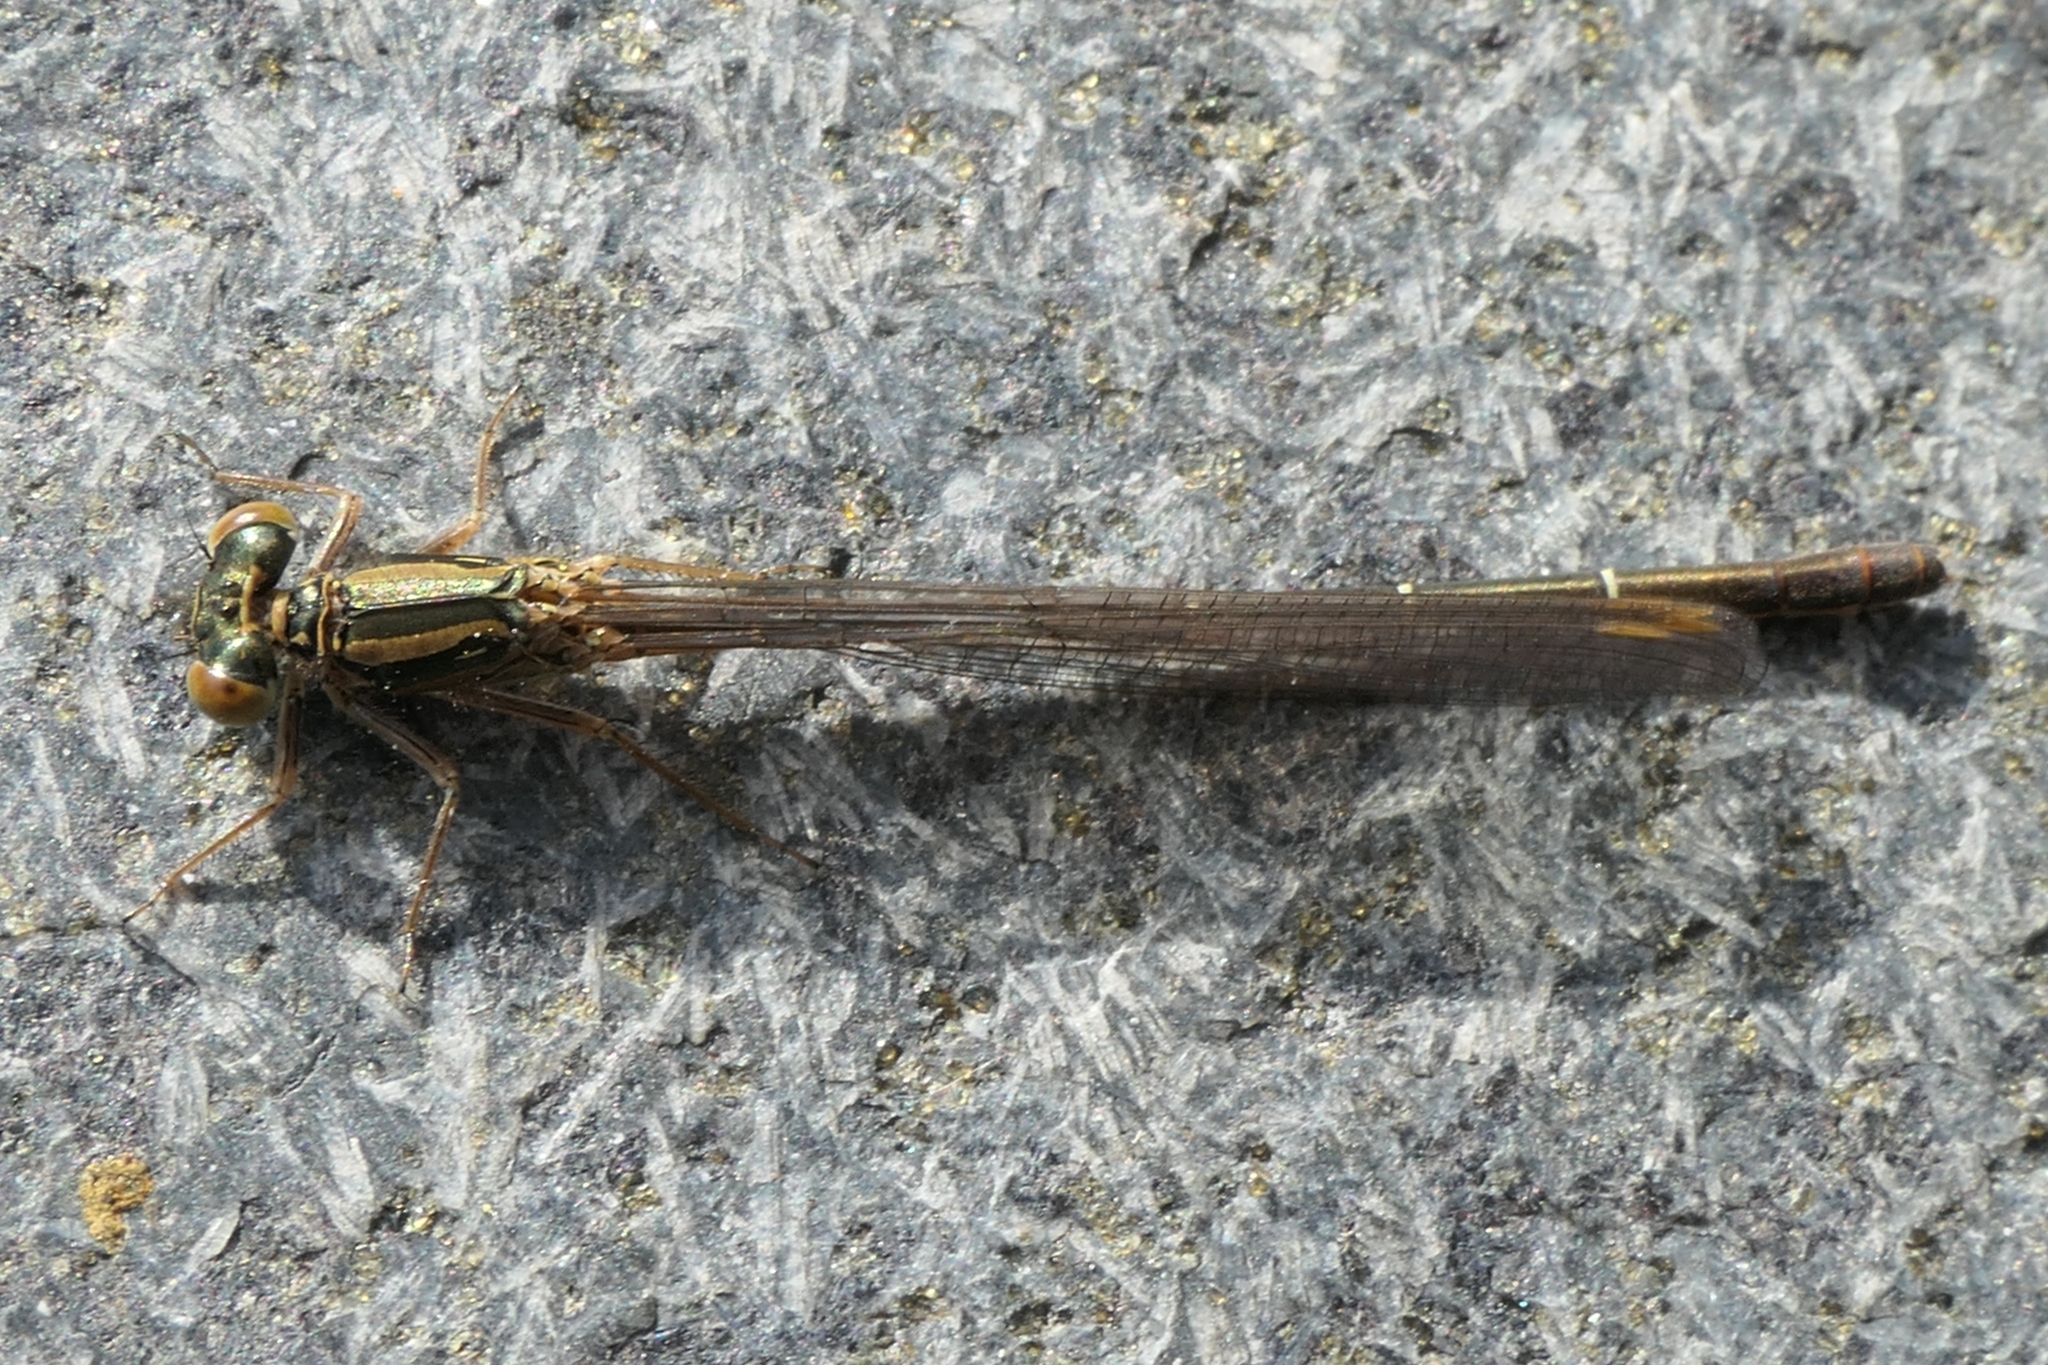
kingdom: Animalia
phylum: Arthropoda
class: Insecta
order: Odonata
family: Coenagrionidae
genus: Xanthocnemis
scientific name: Xanthocnemis zealandica
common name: Common redcoat damselfly
